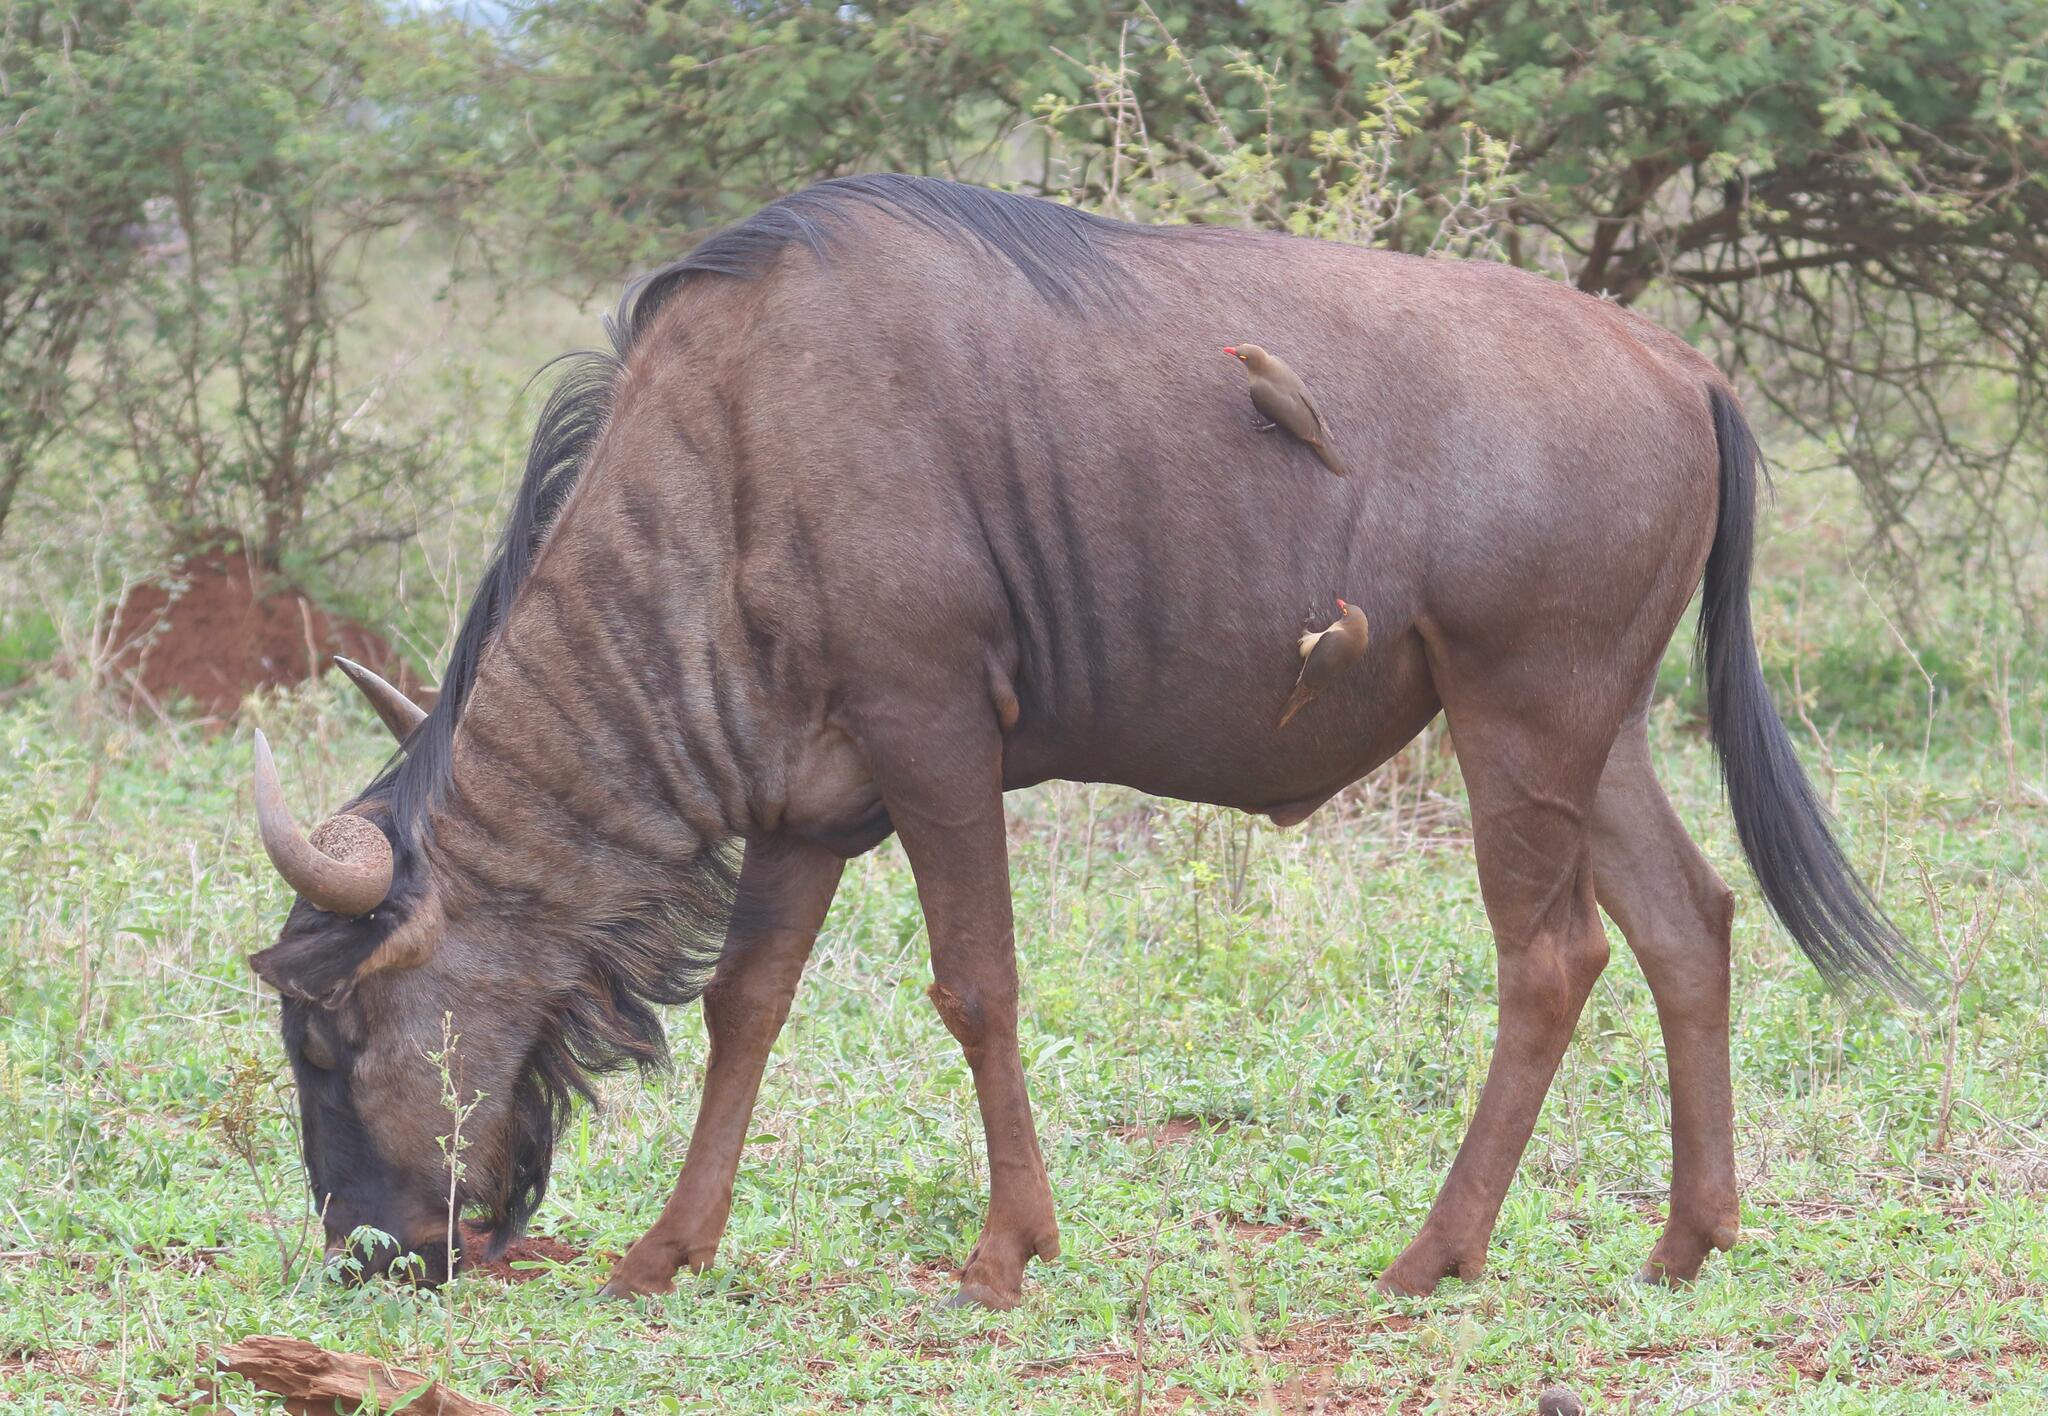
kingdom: Animalia
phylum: Chordata
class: Mammalia
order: Artiodactyla
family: Bovidae
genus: Connochaetes
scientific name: Connochaetes taurinus
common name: Blue wildebeest
